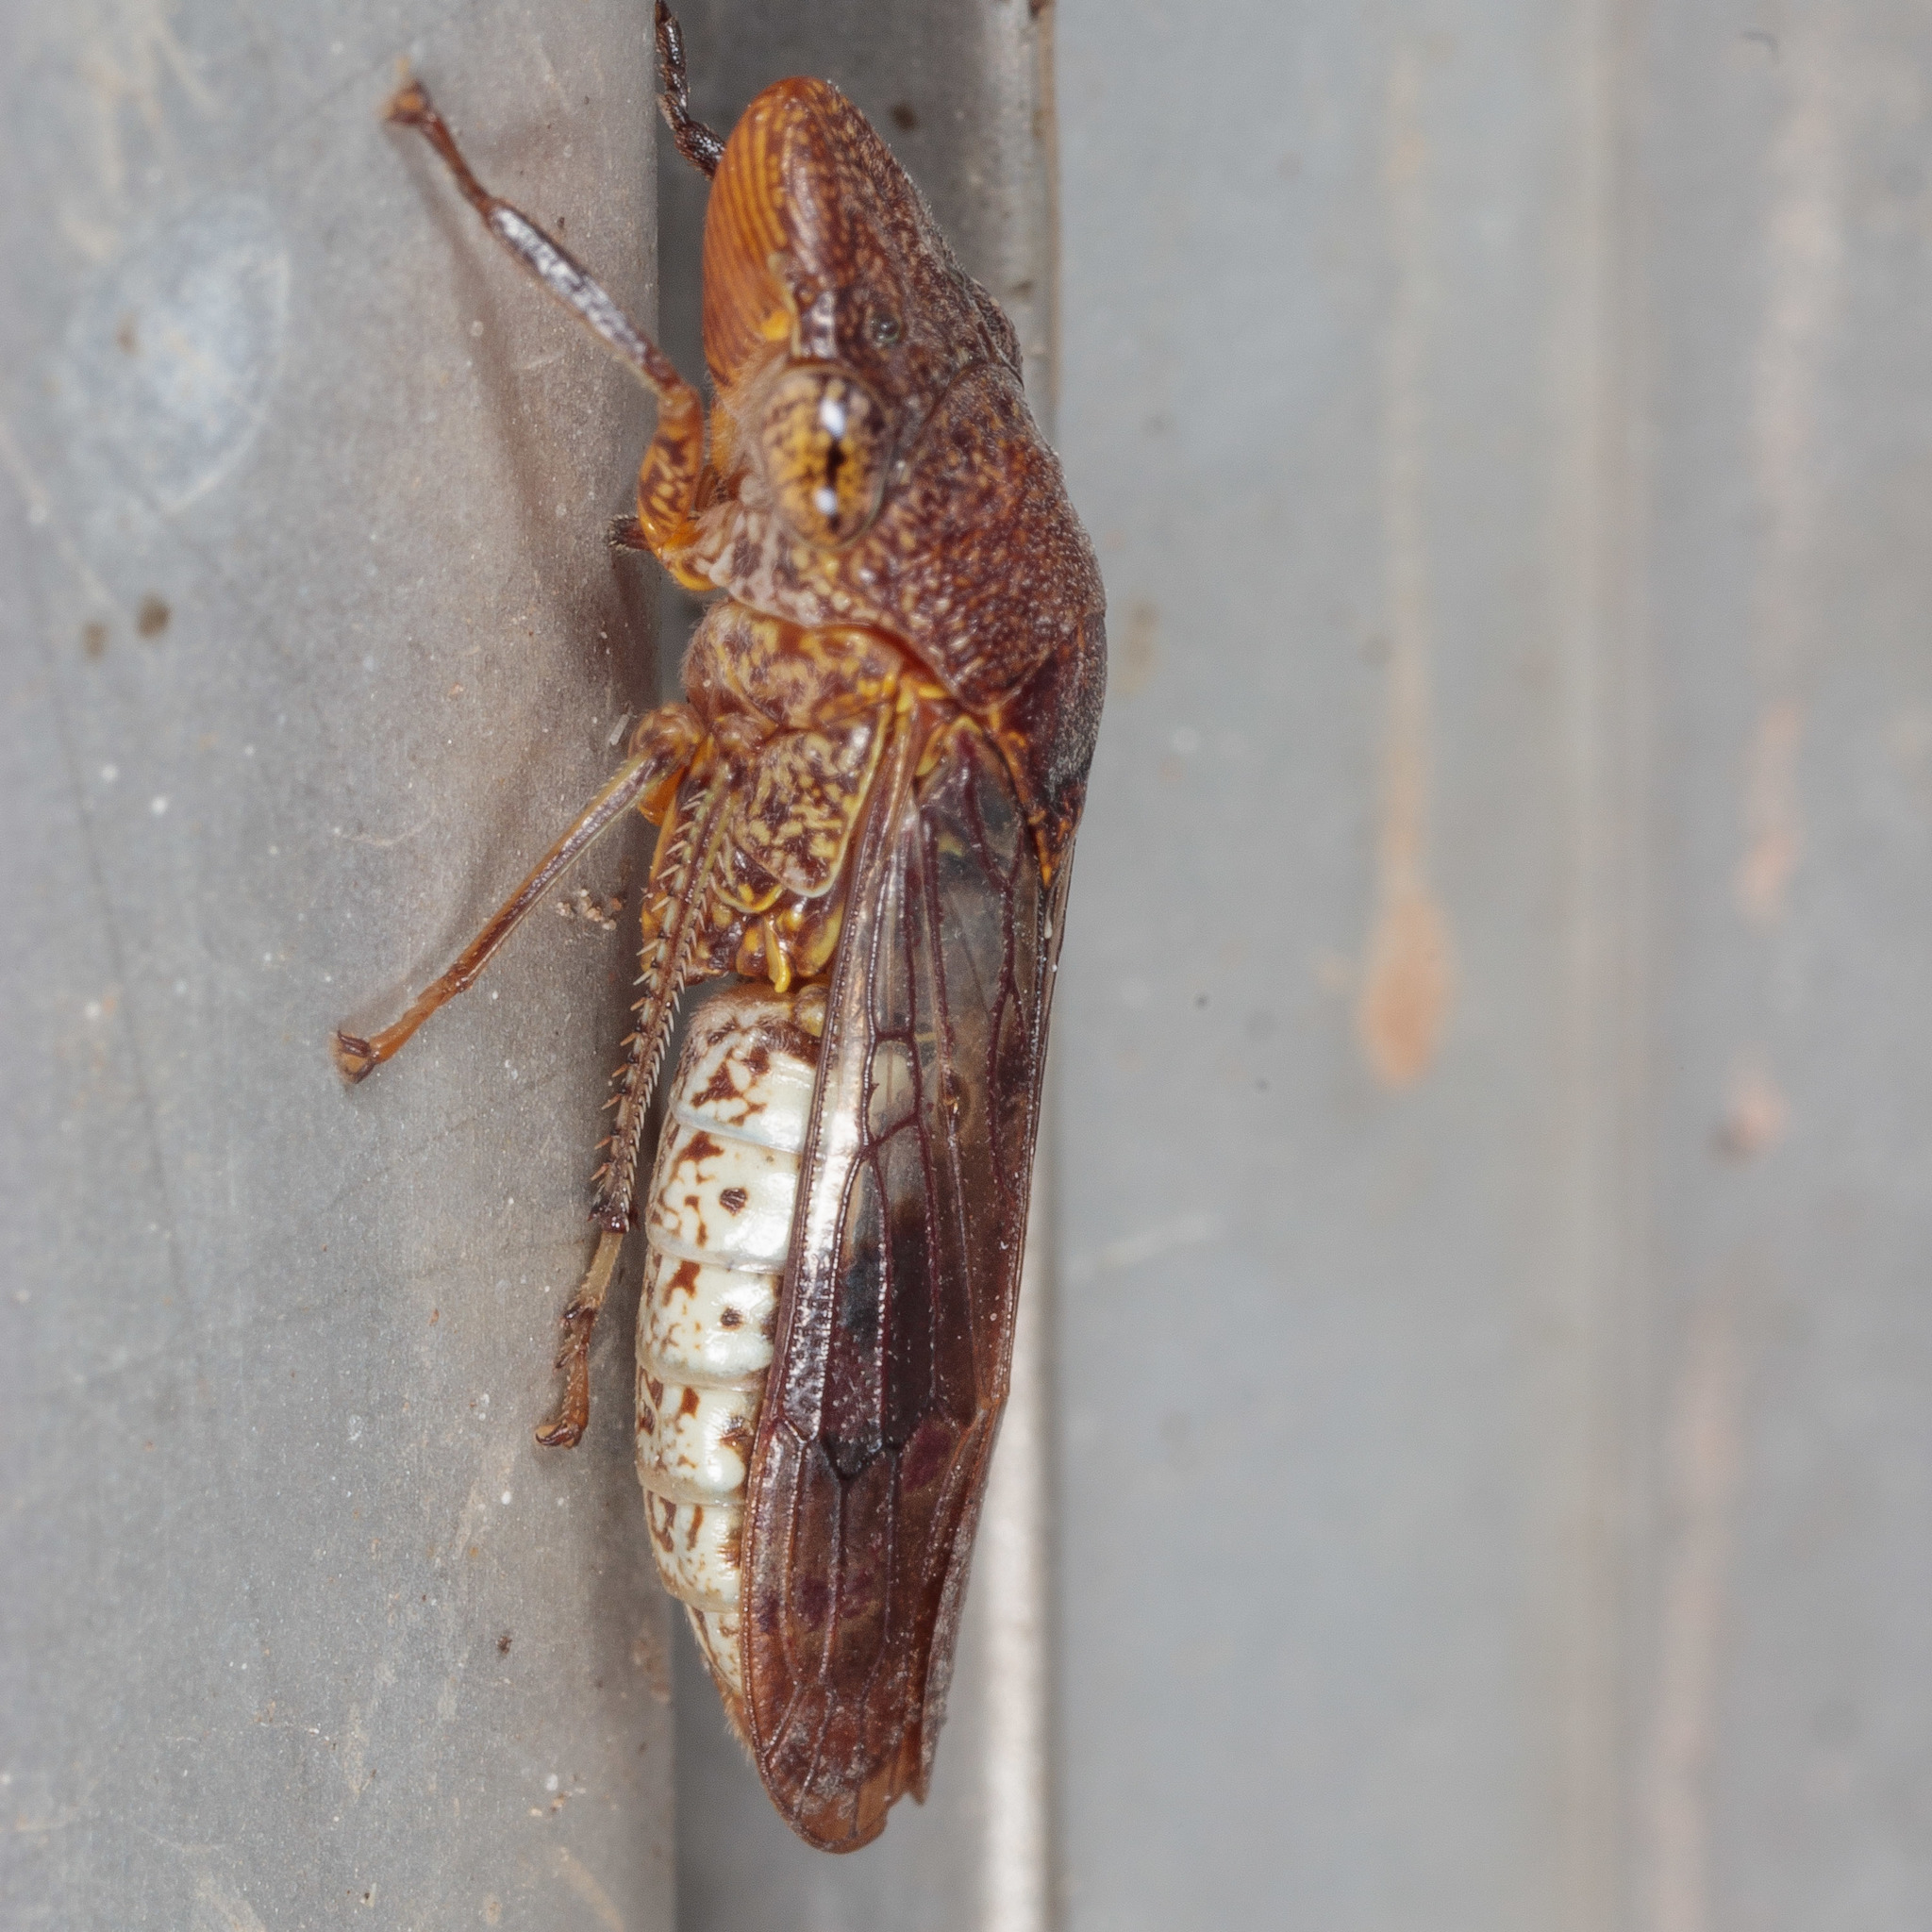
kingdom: Animalia
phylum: Arthropoda
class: Insecta
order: Hemiptera
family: Cicadellidae
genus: Homalodisca
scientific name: Homalodisca vitripennis
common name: Glassy-winged sharpshooter
